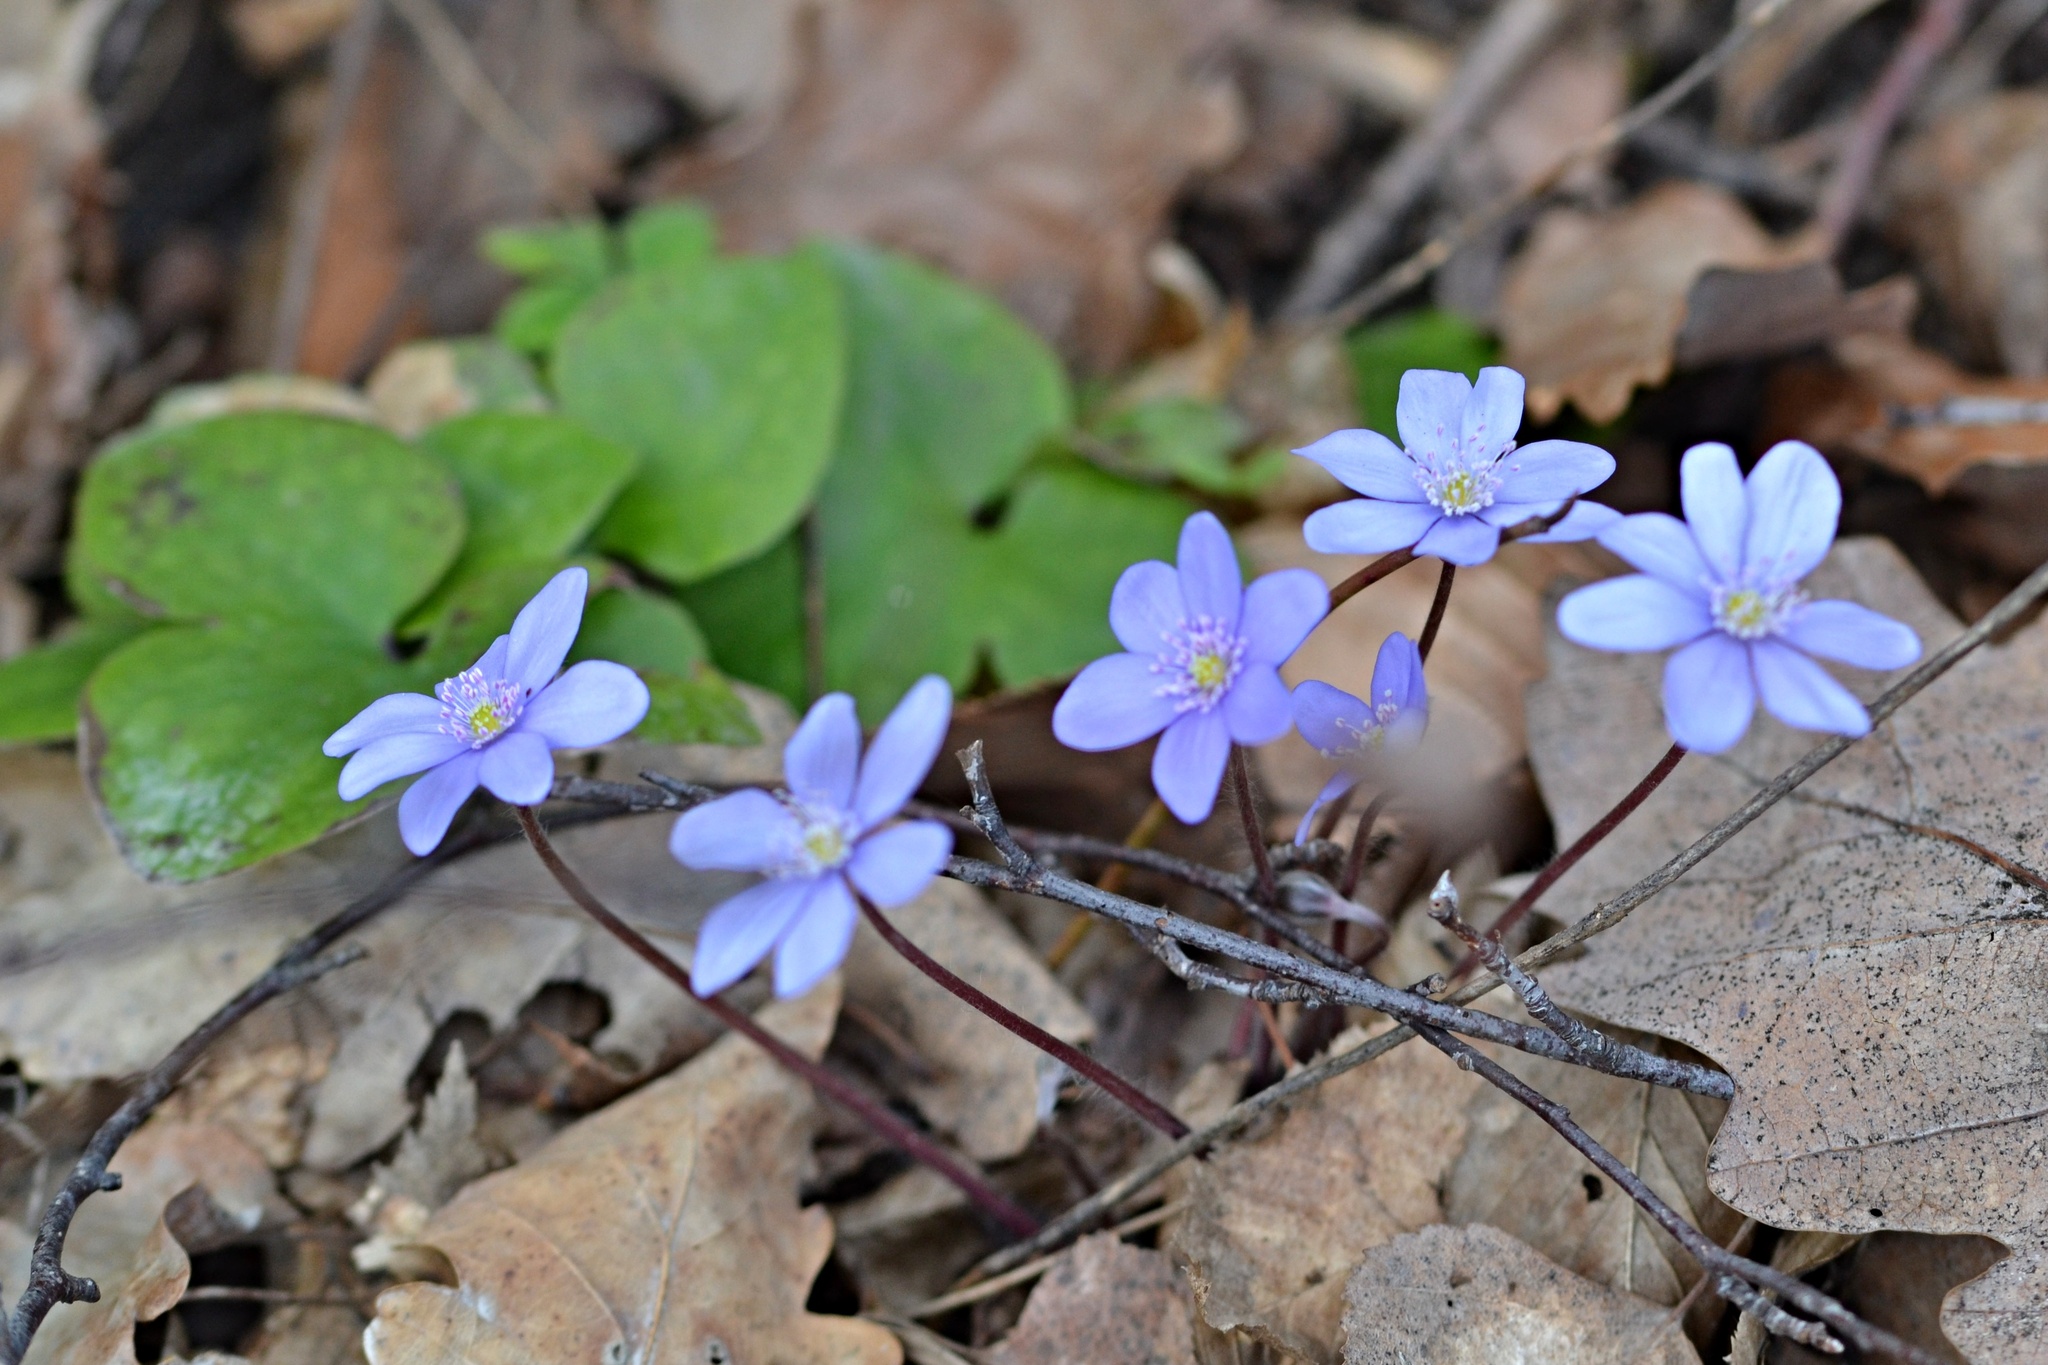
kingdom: Plantae
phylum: Tracheophyta
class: Magnoliopsida
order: Ranunculales
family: Ranunculaceae
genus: Hepatica
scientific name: Hepatica nobilis
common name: Liverleaf
